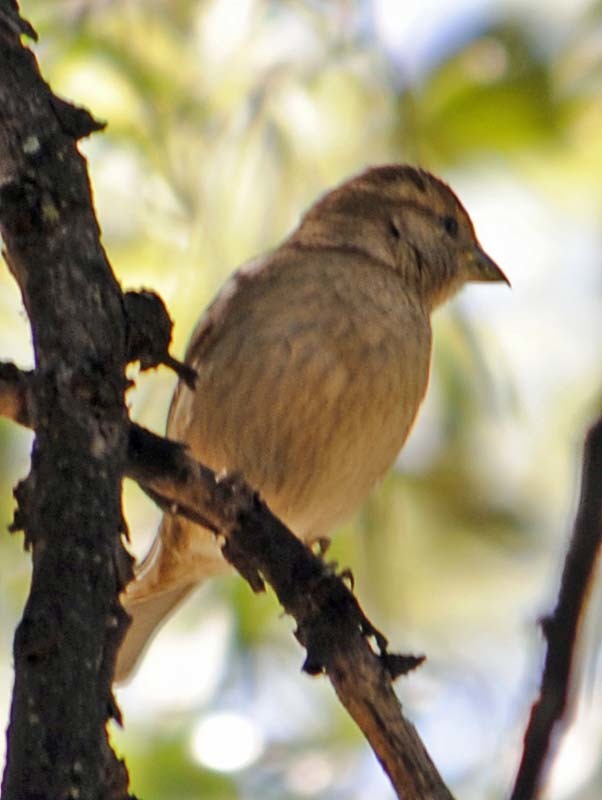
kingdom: Animalia
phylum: Chordata
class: Aves
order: Passeriformes
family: Passeridae
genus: Passer
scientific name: Passer domesticus
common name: House sparrow
